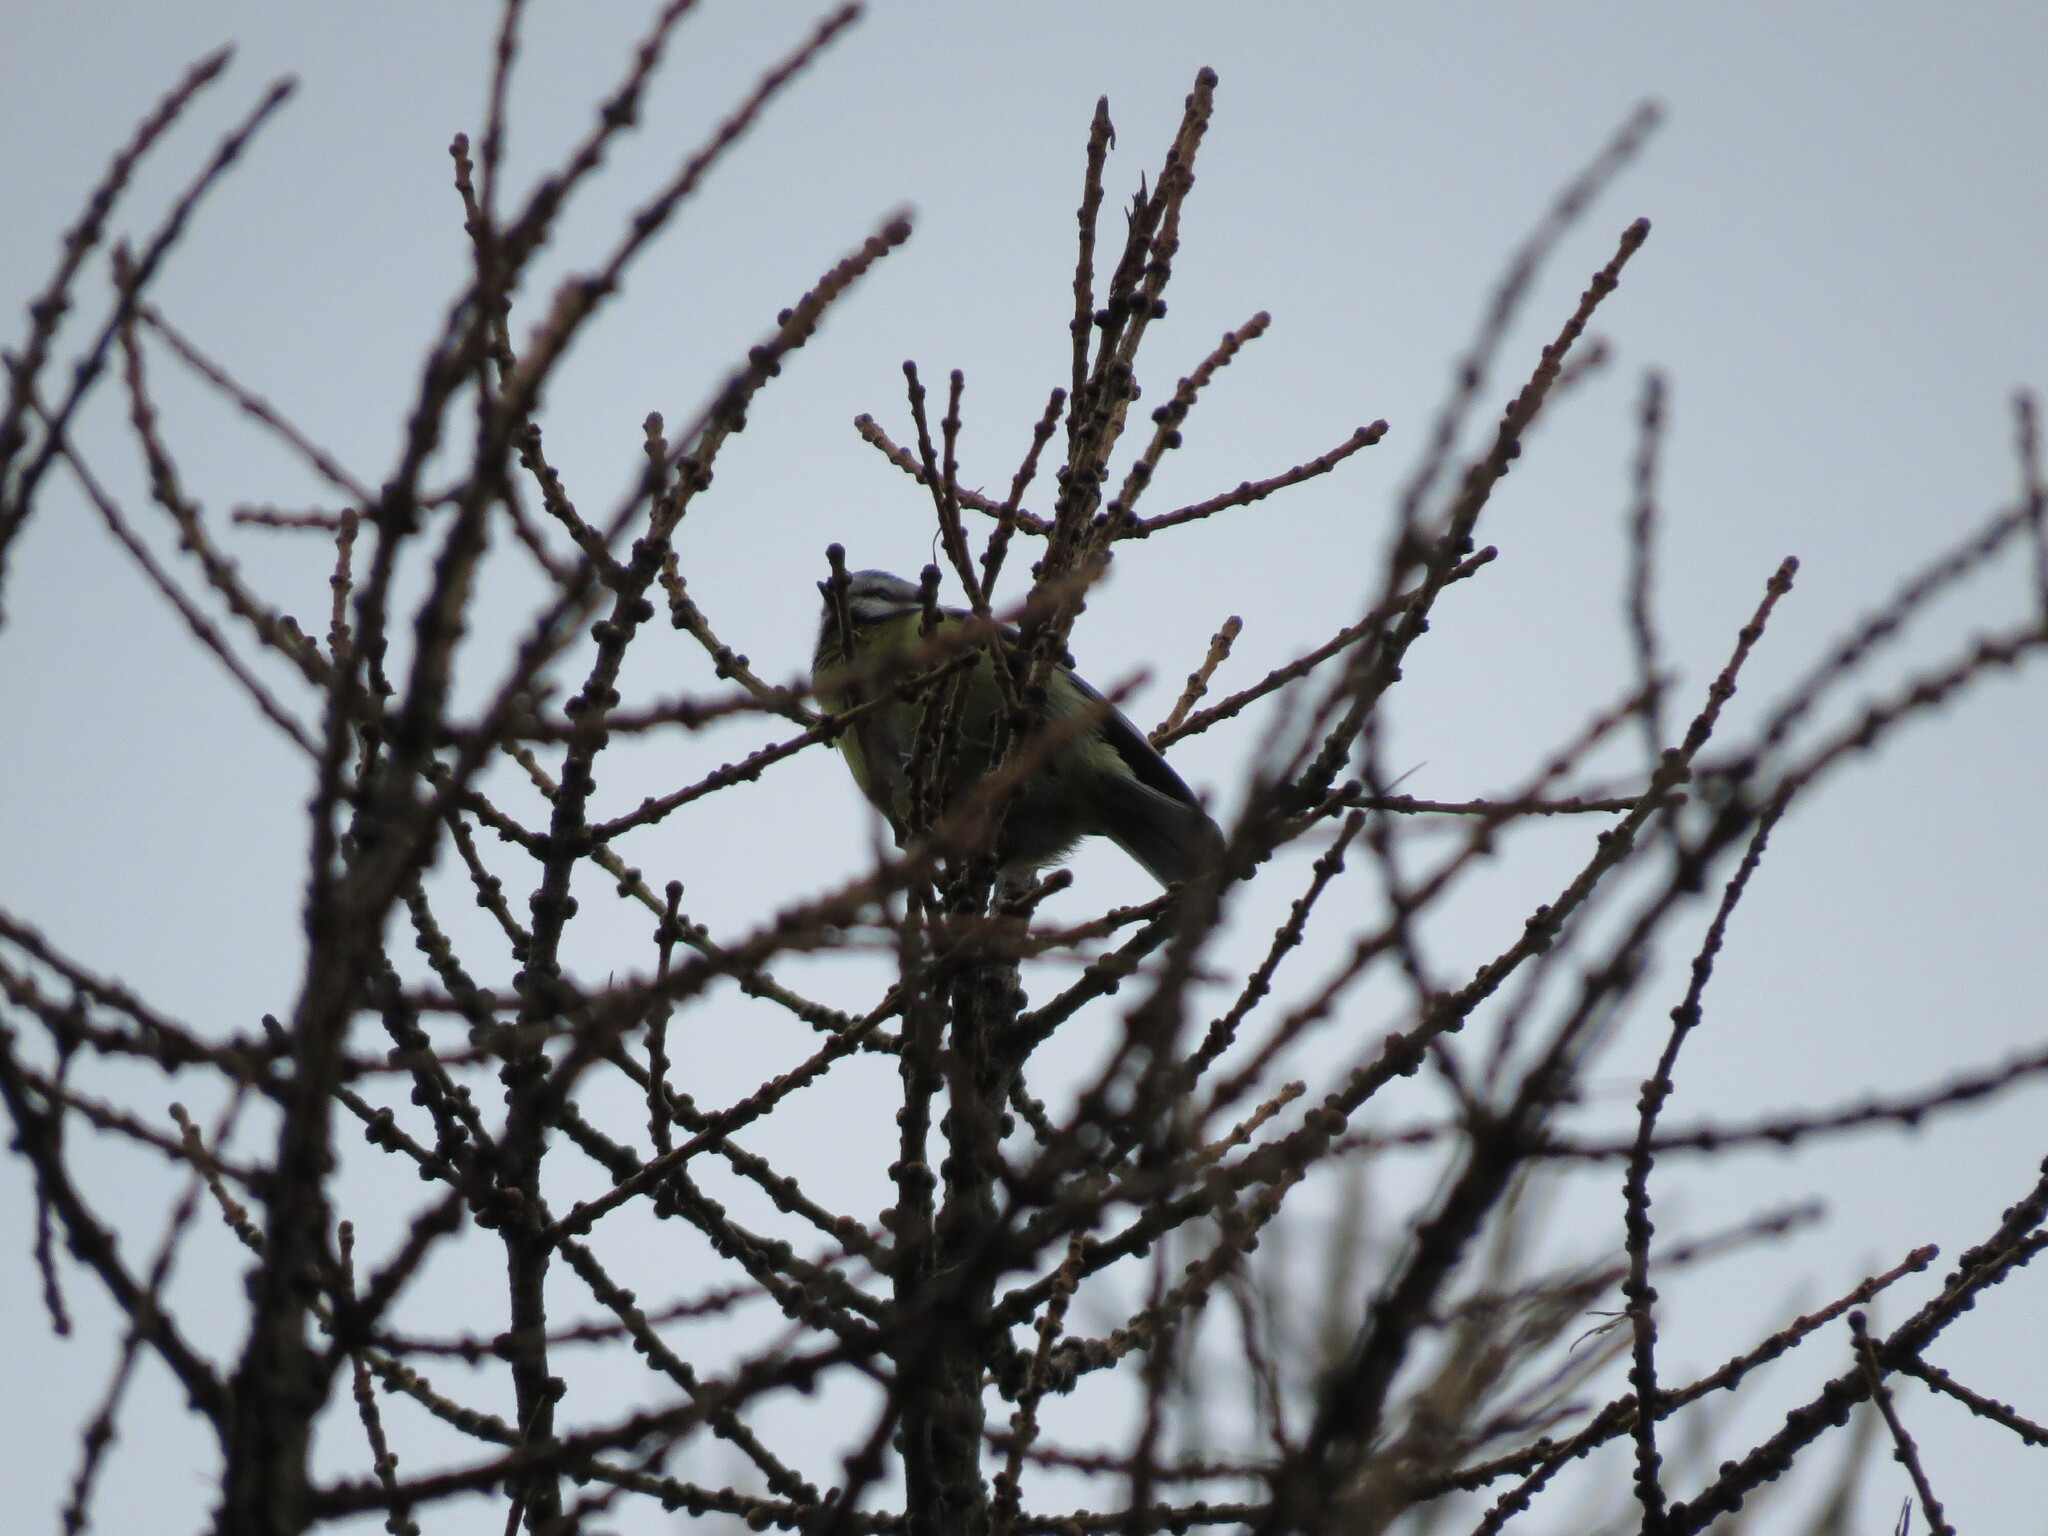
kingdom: Animalia
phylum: Chordata
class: Aves
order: Passeriformes
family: Paridae
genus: Cyanistes
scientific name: Cyanistes caeruleus
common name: Eurasian blue tit
